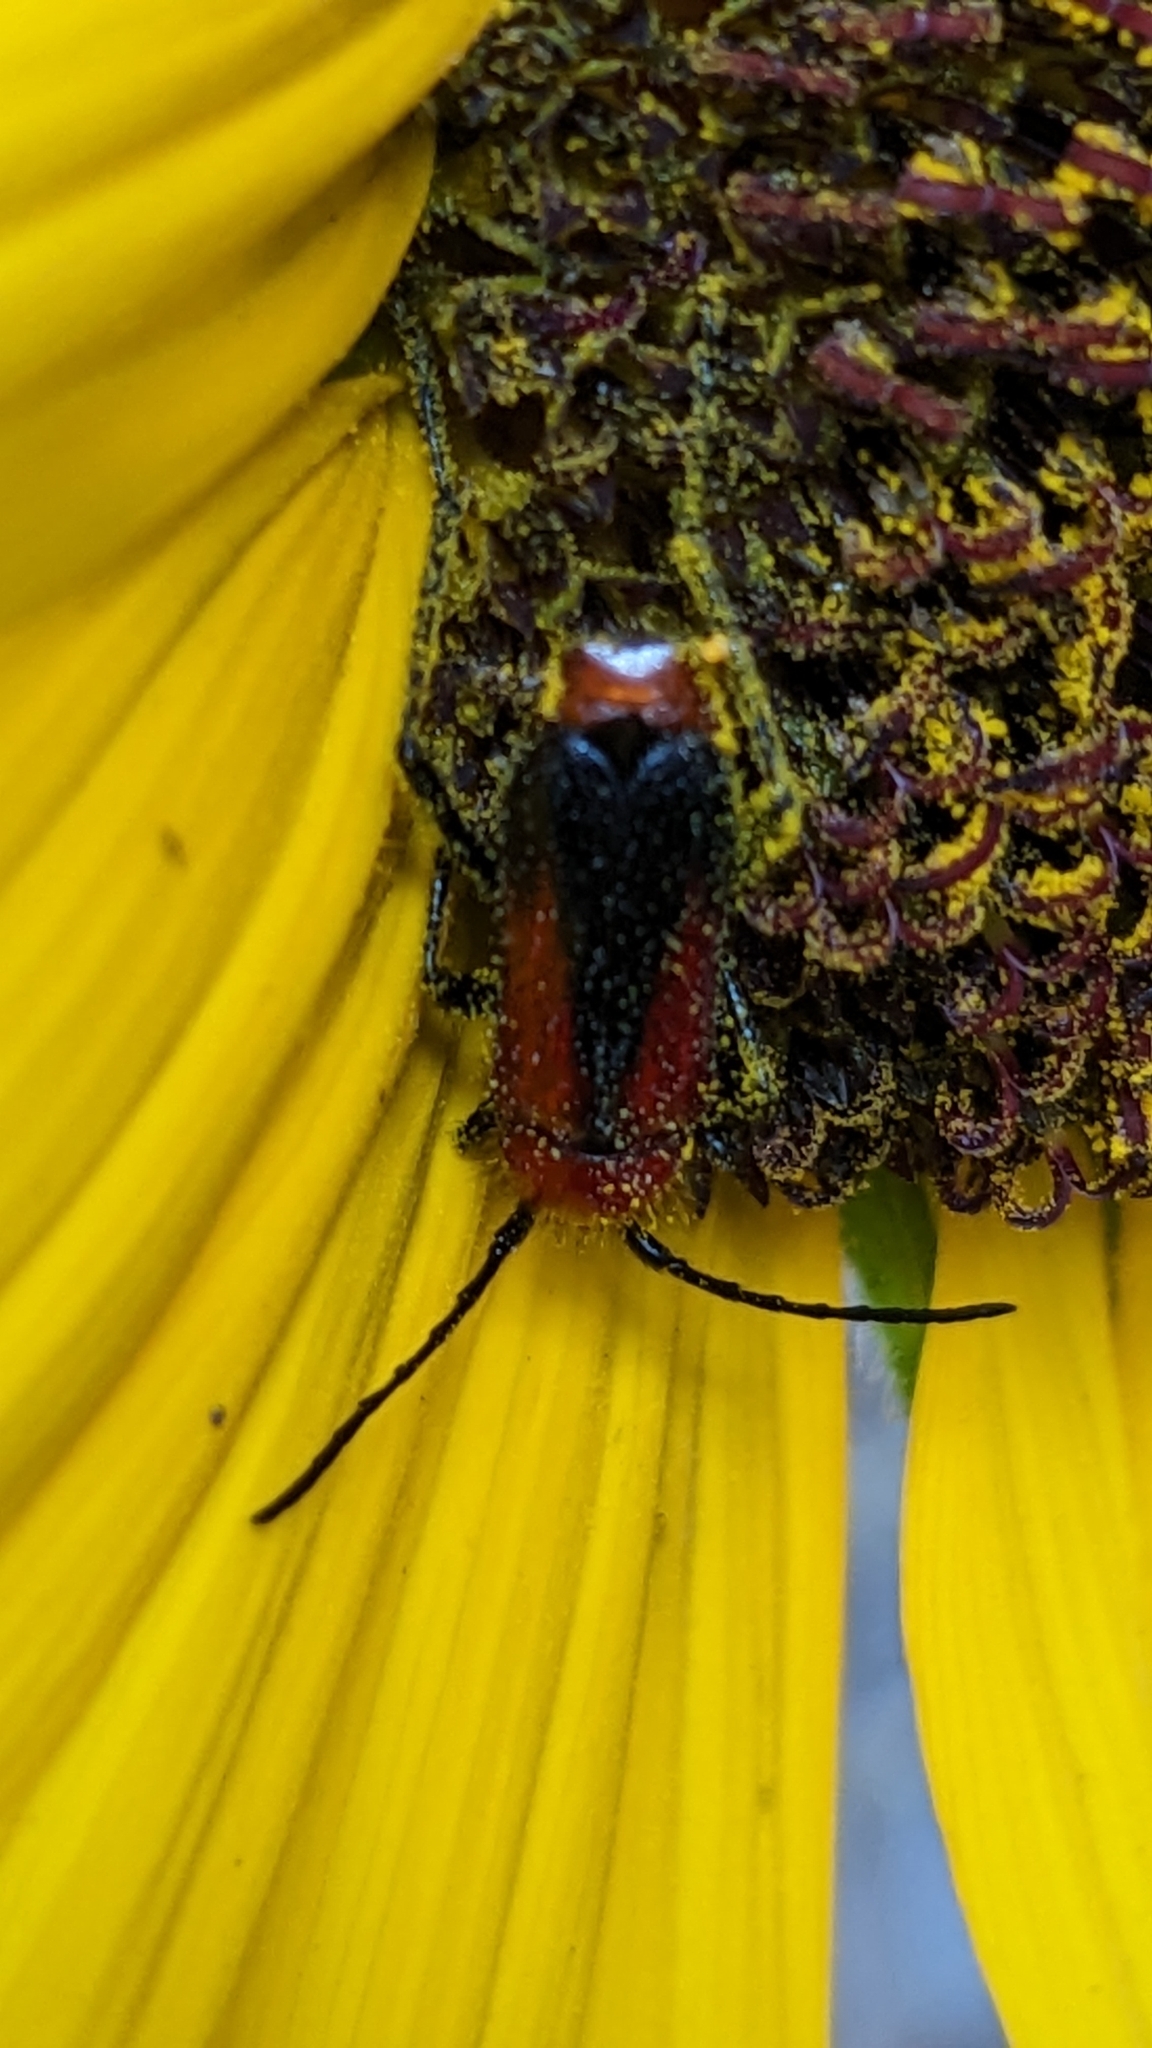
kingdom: Animalia
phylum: Arthropoda
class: Insecta
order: Coleoptera
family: Cerambycidae
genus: Batyle
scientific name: Batyle suturalis
